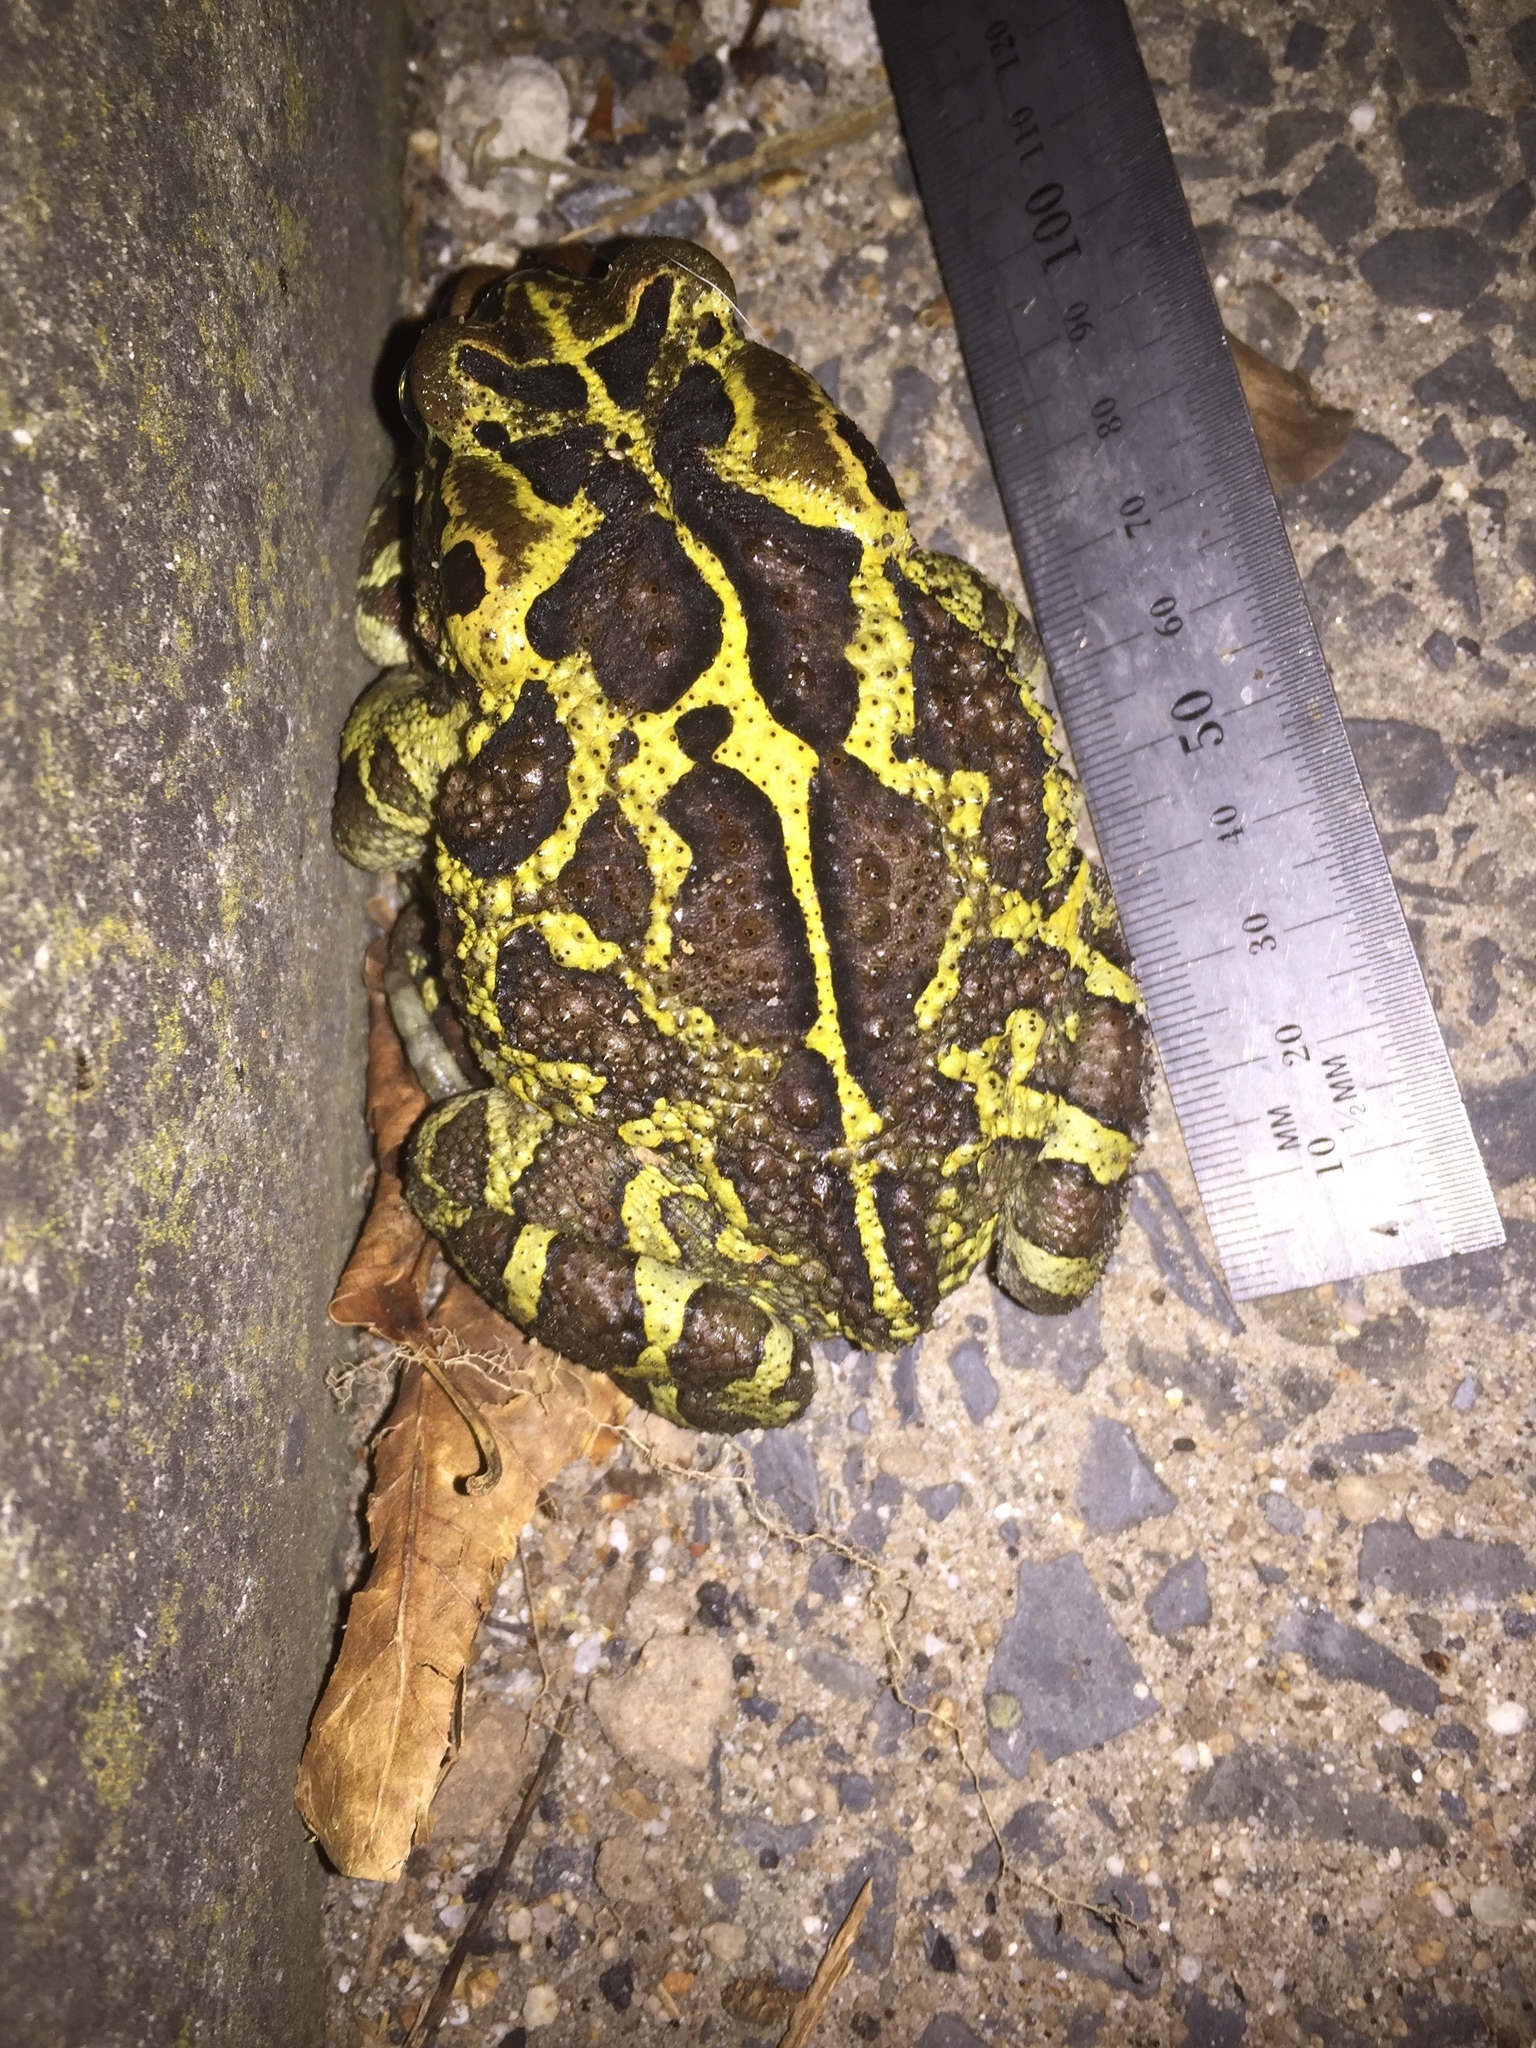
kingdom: Animalia
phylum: Chordata
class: Amphibia
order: Anura
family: Bufonidae
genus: Sclerophrys
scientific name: Sclerophrys pantherina
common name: Panther toad
